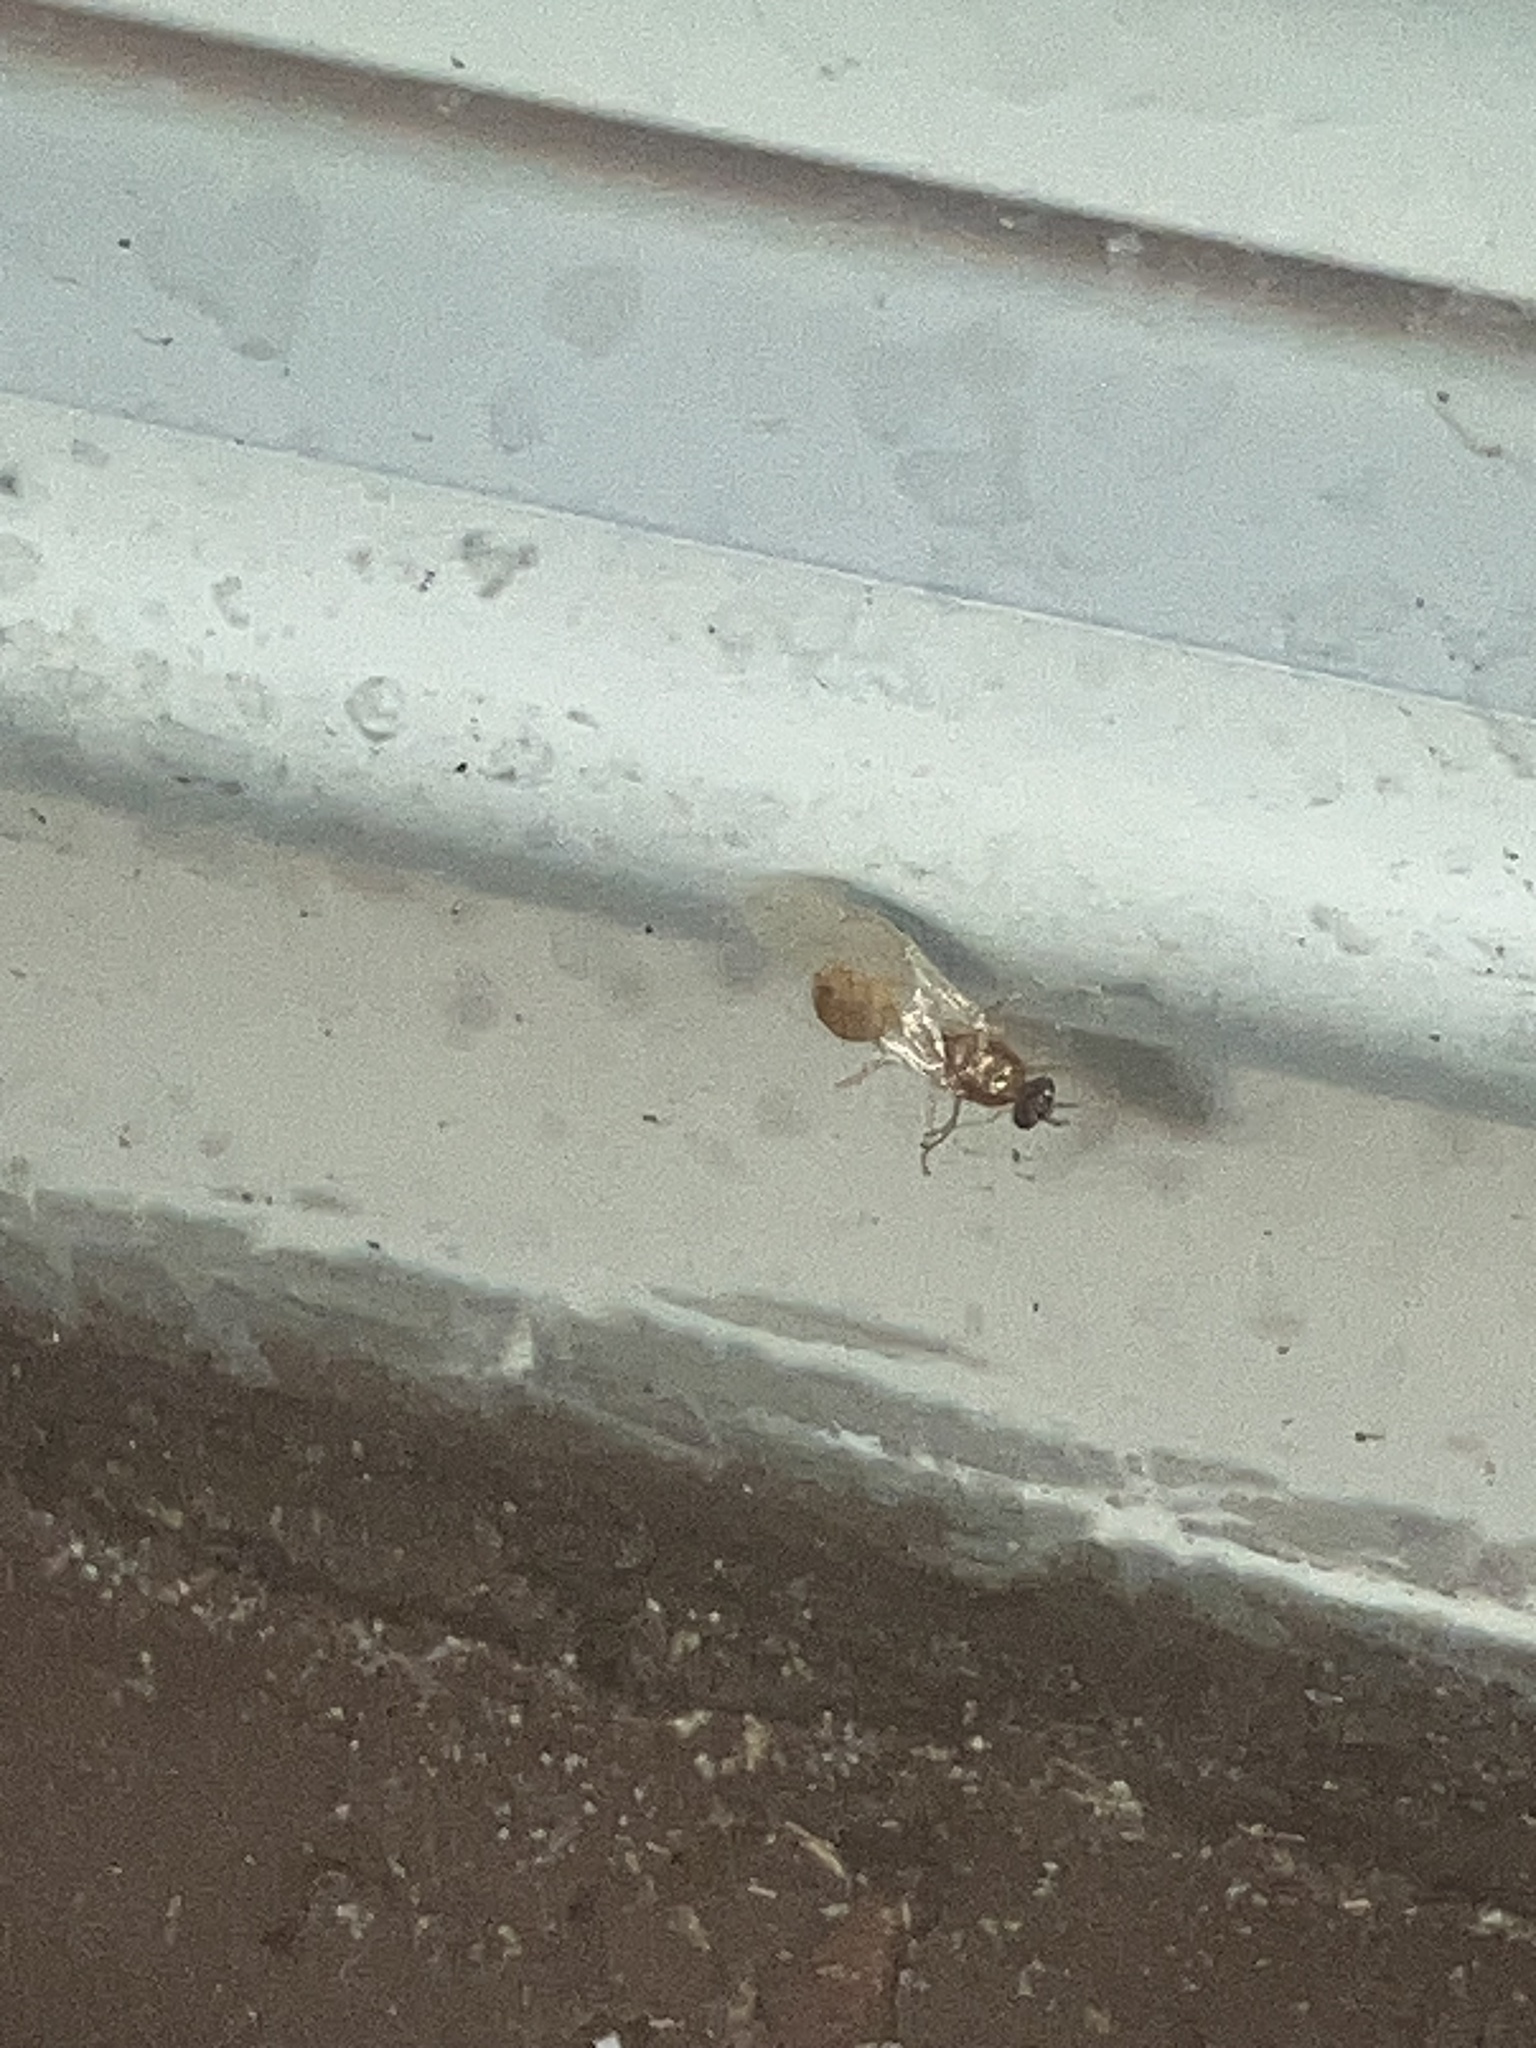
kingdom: Animalia
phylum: Arthropoda
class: Insecta
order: Hymenoptera
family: Formicidae
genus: Pheidole
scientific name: Pheidole
